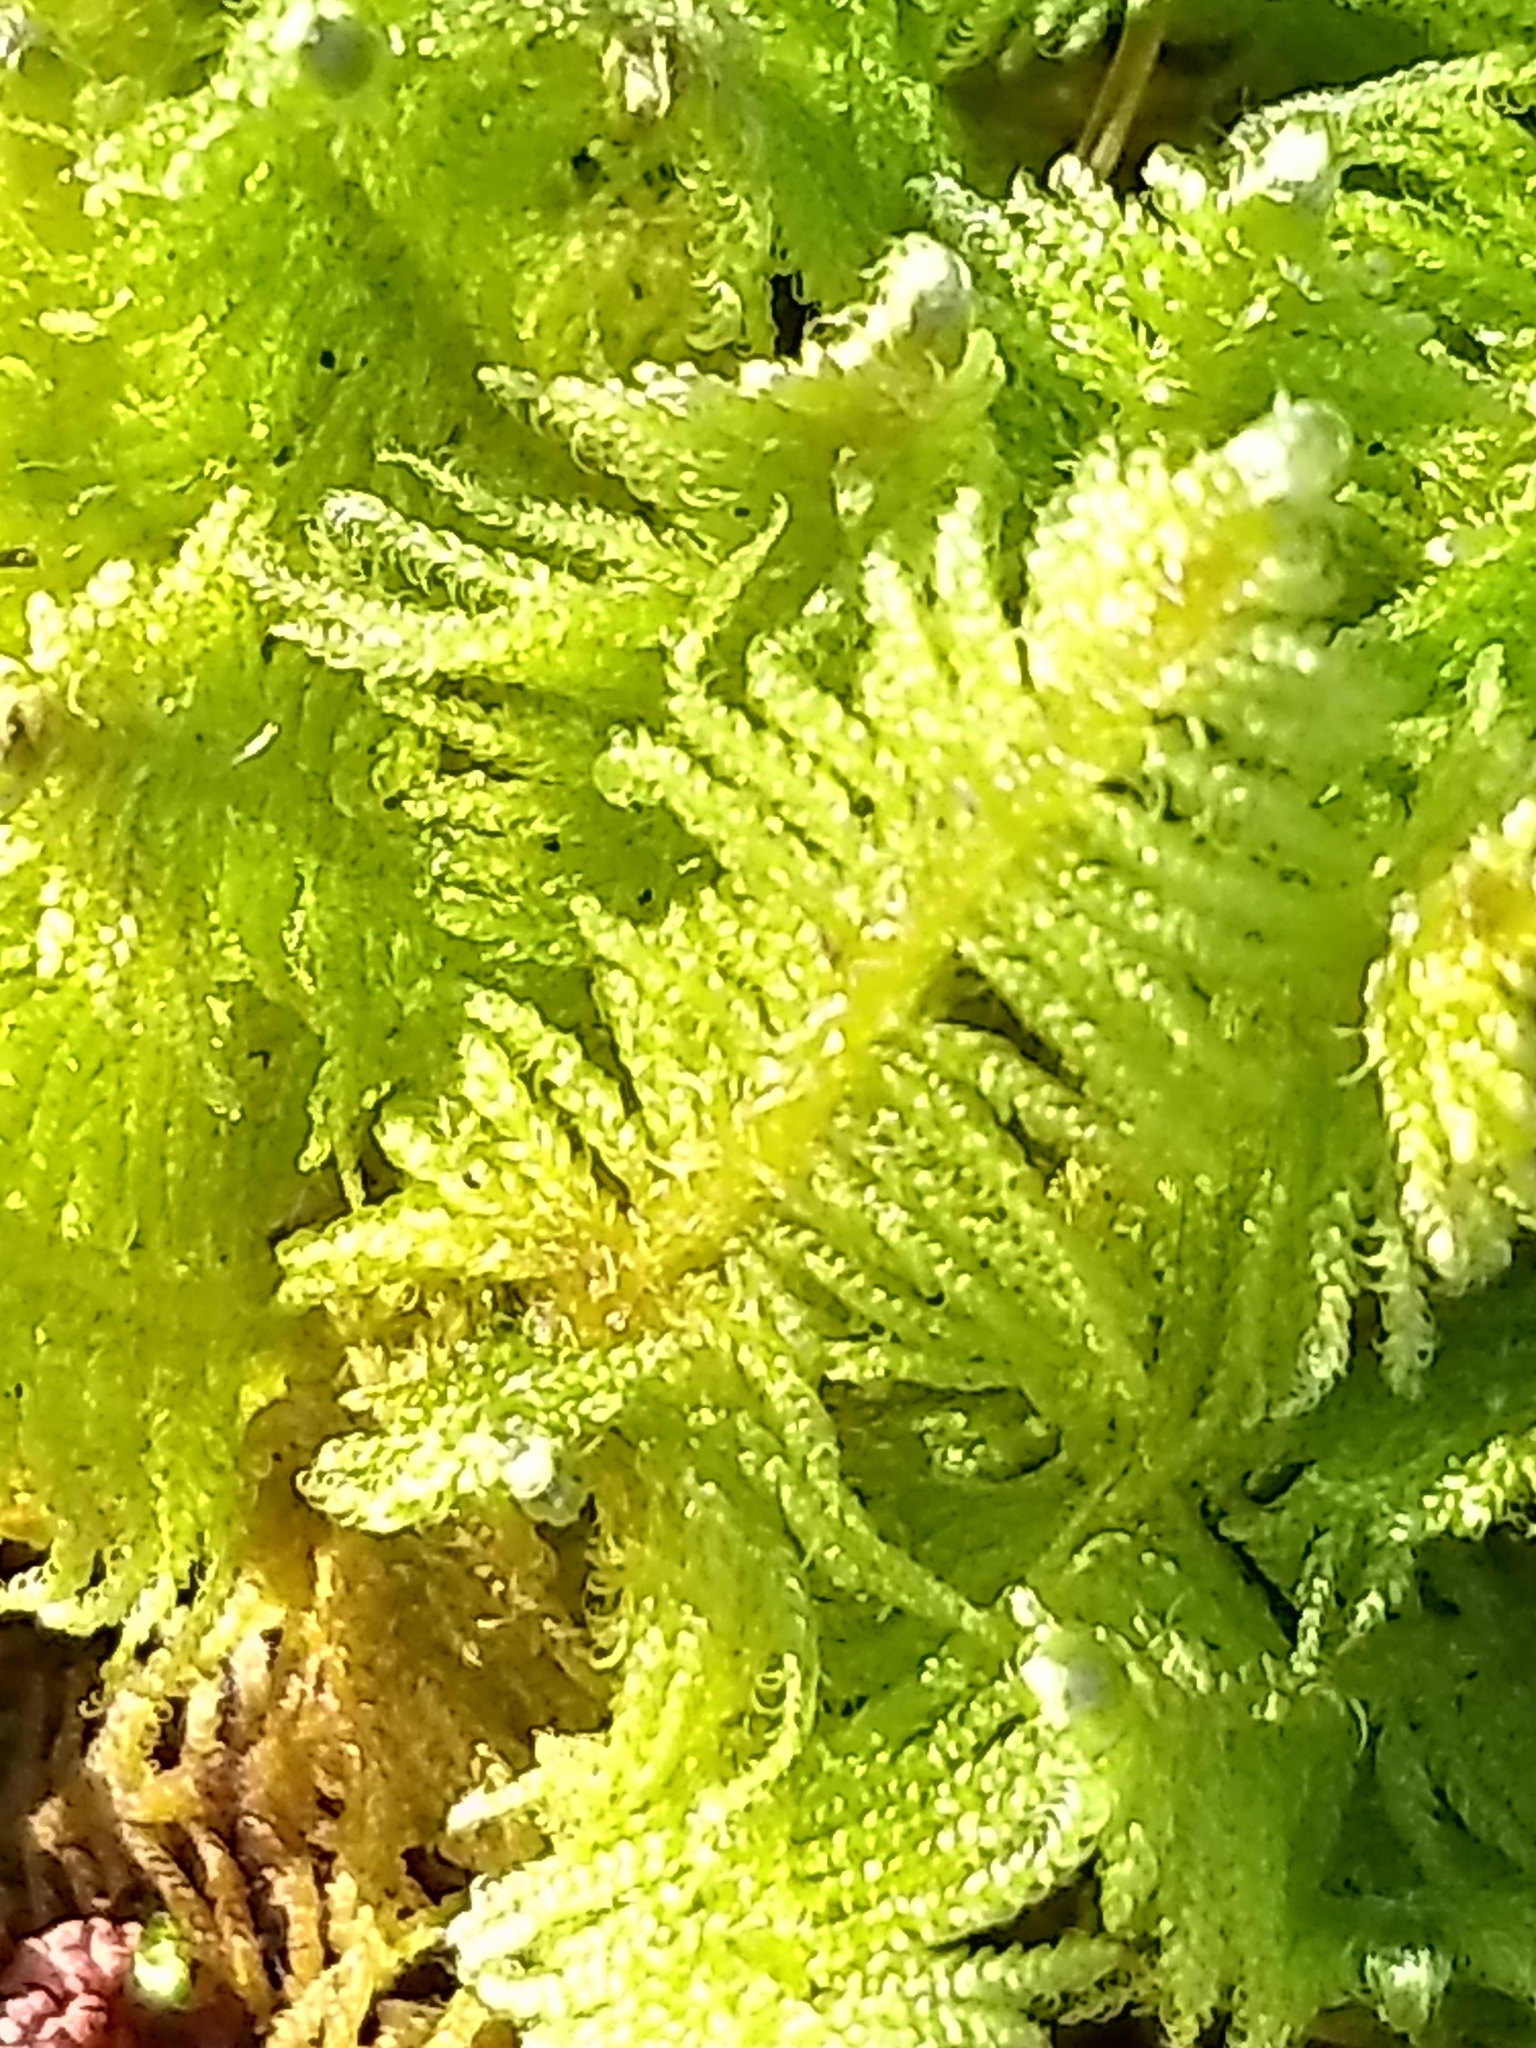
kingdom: Plantae
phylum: Bryophyta
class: Bryopsida
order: Hypnales
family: Pylaisiaceae
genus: Ptilium
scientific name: Ptilium crista-castrensis
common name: Knight's plume moss
